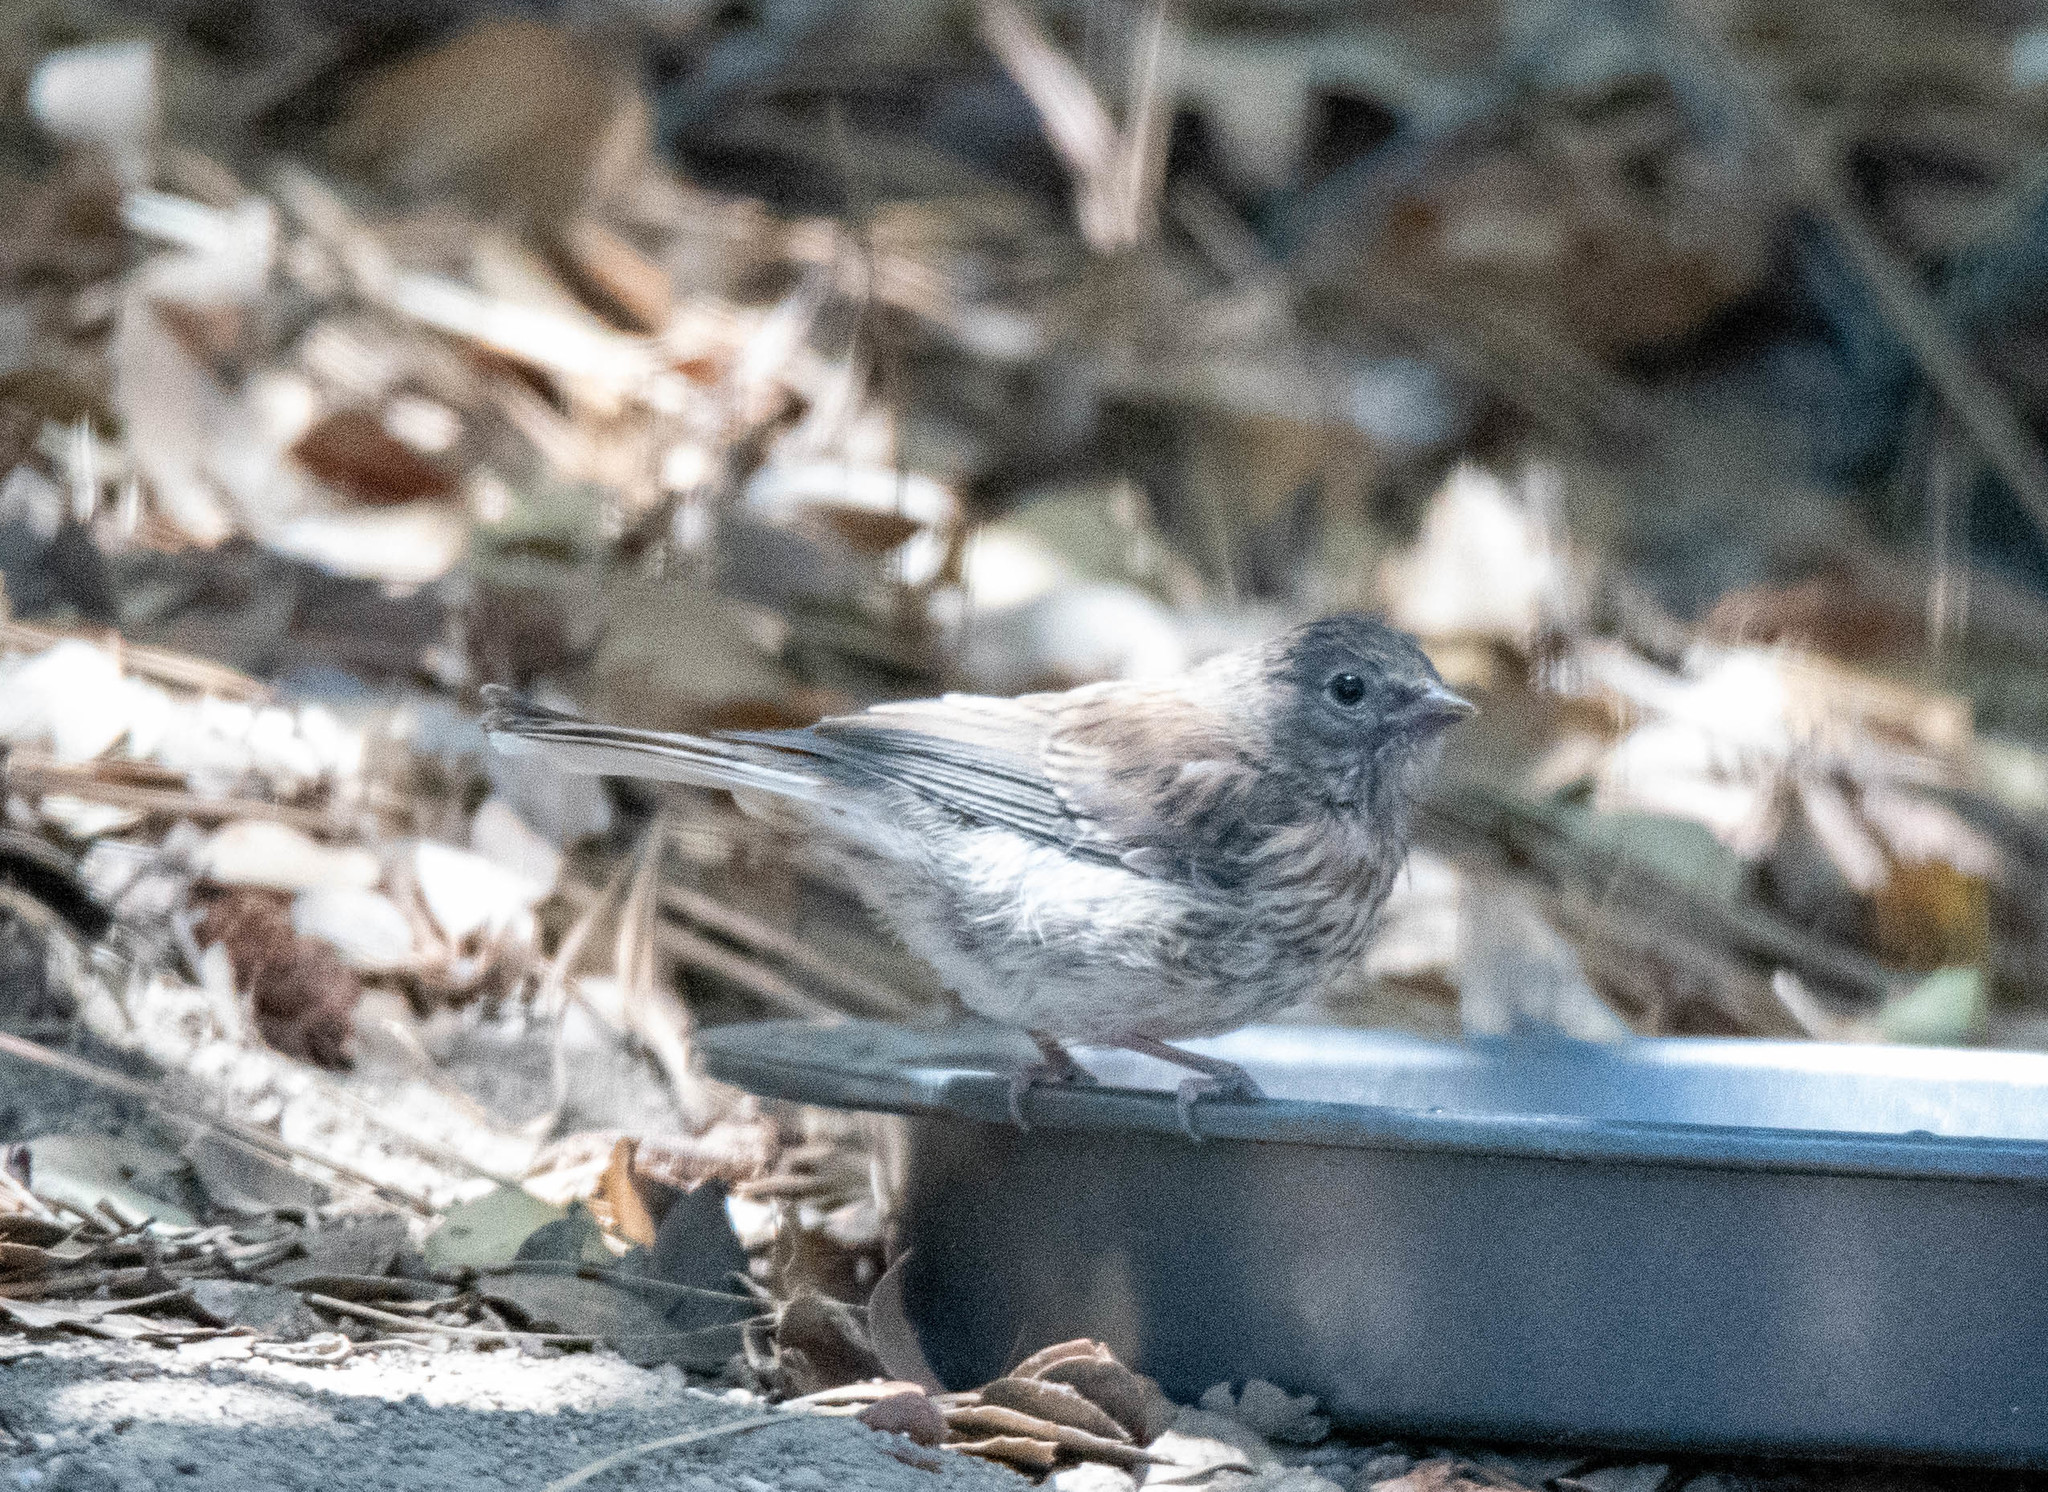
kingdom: Animalia
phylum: Chordata
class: Aves
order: Passeriformes
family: Passerellidae
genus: Junco
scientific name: Junco hyemalis
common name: Dark-eyed junco
